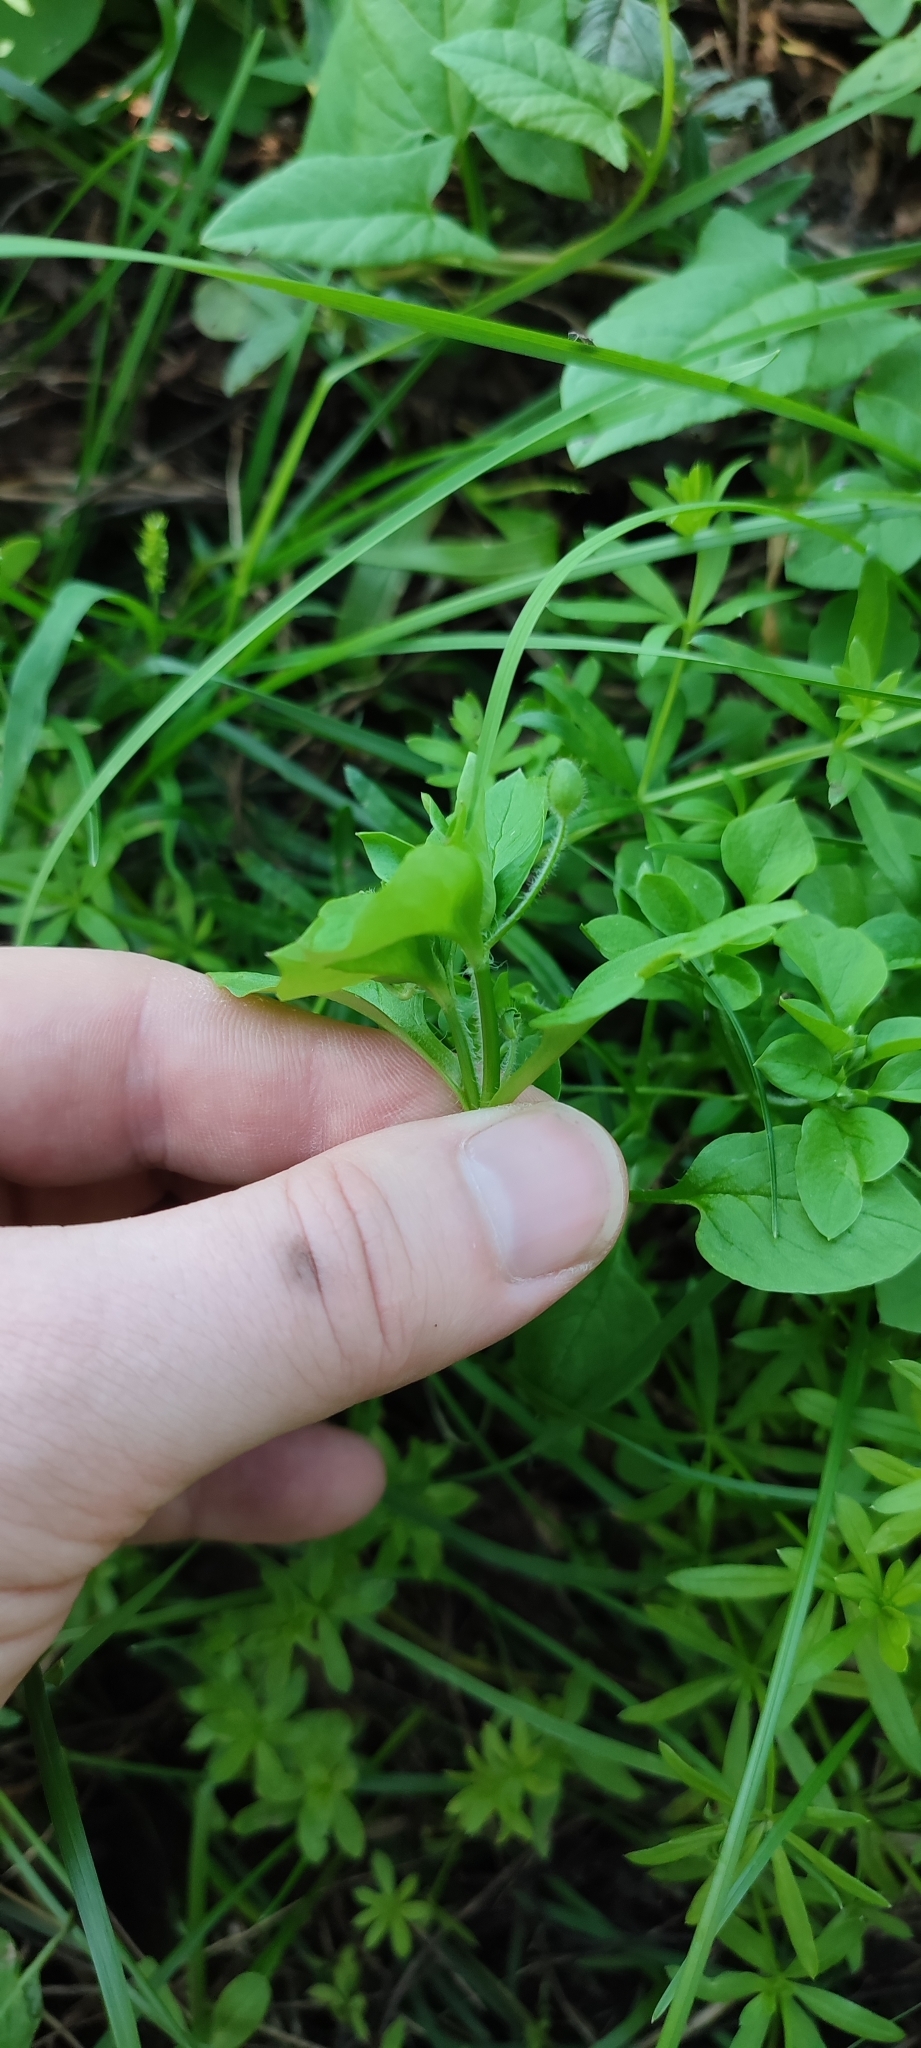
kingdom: Plantae
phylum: Tracheophyta
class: Magnoliopsida
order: Caryophyllales
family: Caryophyllaceae
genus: Stellaria
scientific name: Stellaria media
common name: Common chickweed
